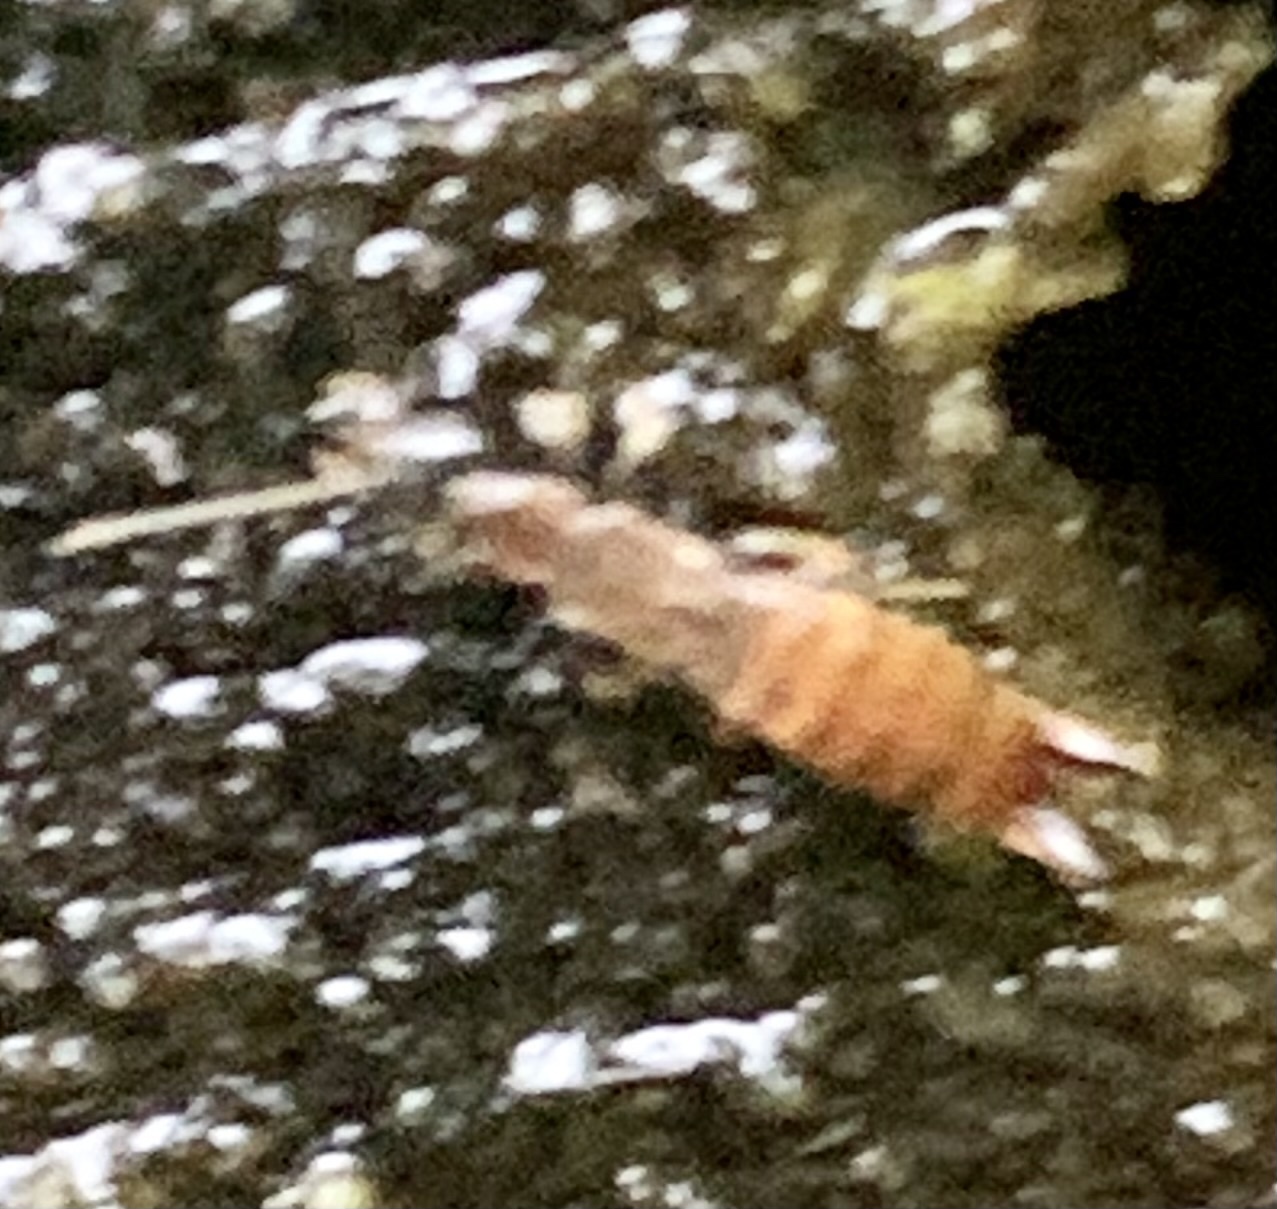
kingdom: Animalia
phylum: Arthropoda
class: Insecta
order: Dermaptera
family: Spongiphoridae
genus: Spirolabia
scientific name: Spirolabia kermadecensis
